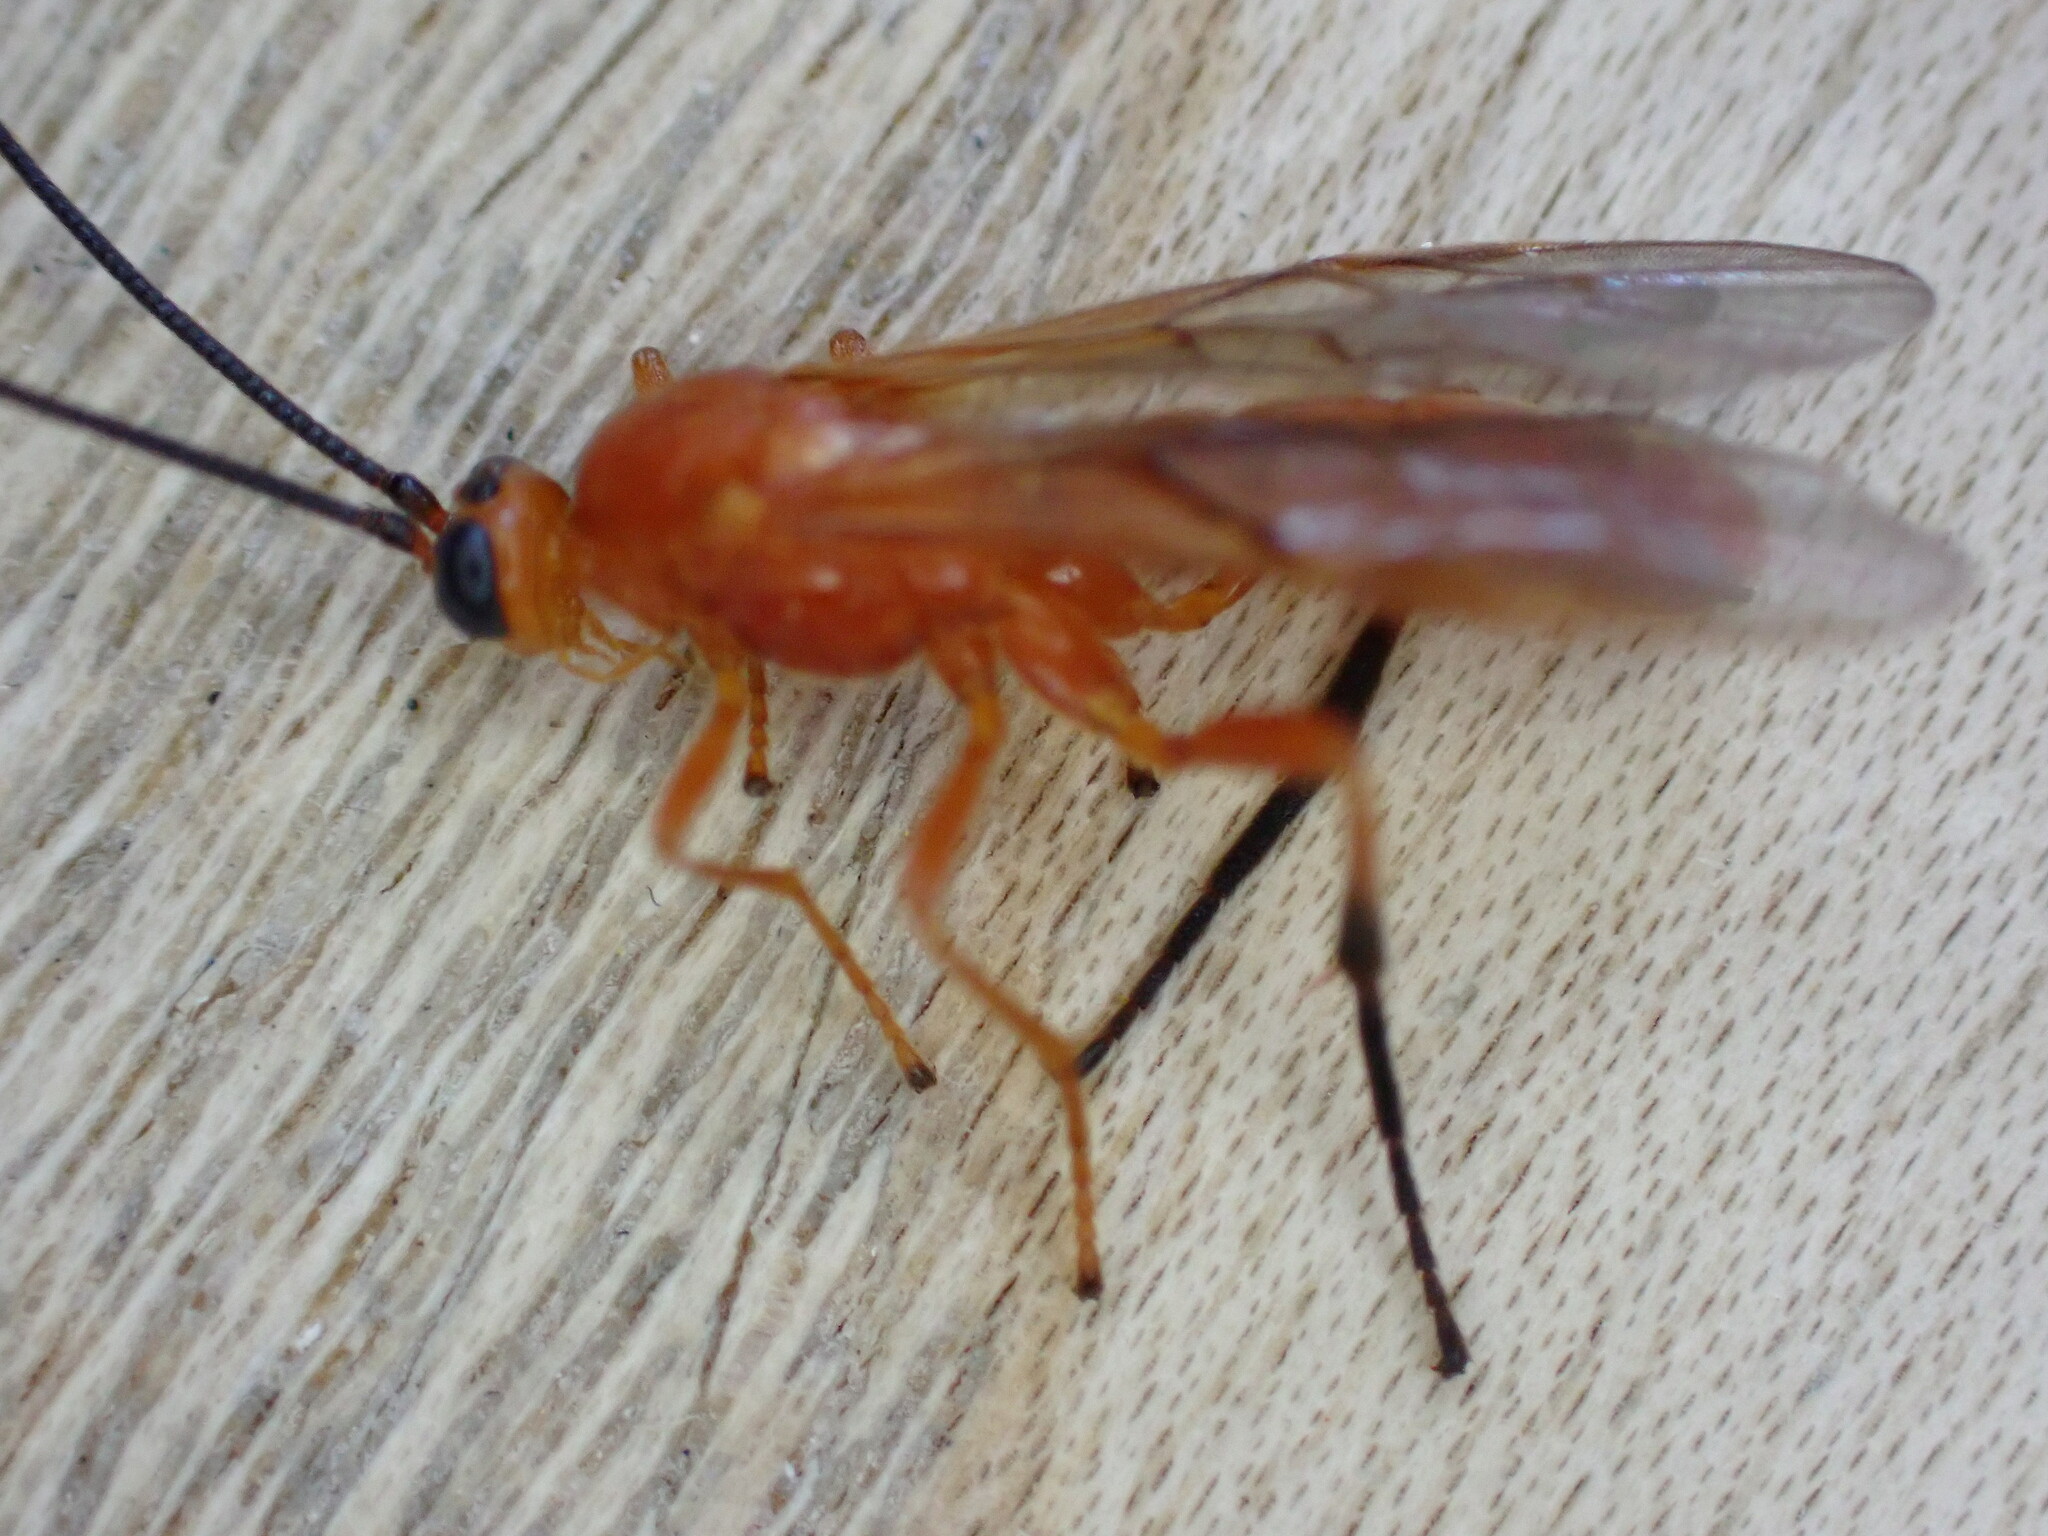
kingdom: Animalia
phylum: Arthropoda
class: Insecta
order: Hymenoptera
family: Braconidae
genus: Aleiodes
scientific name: Aleiodes praetor
